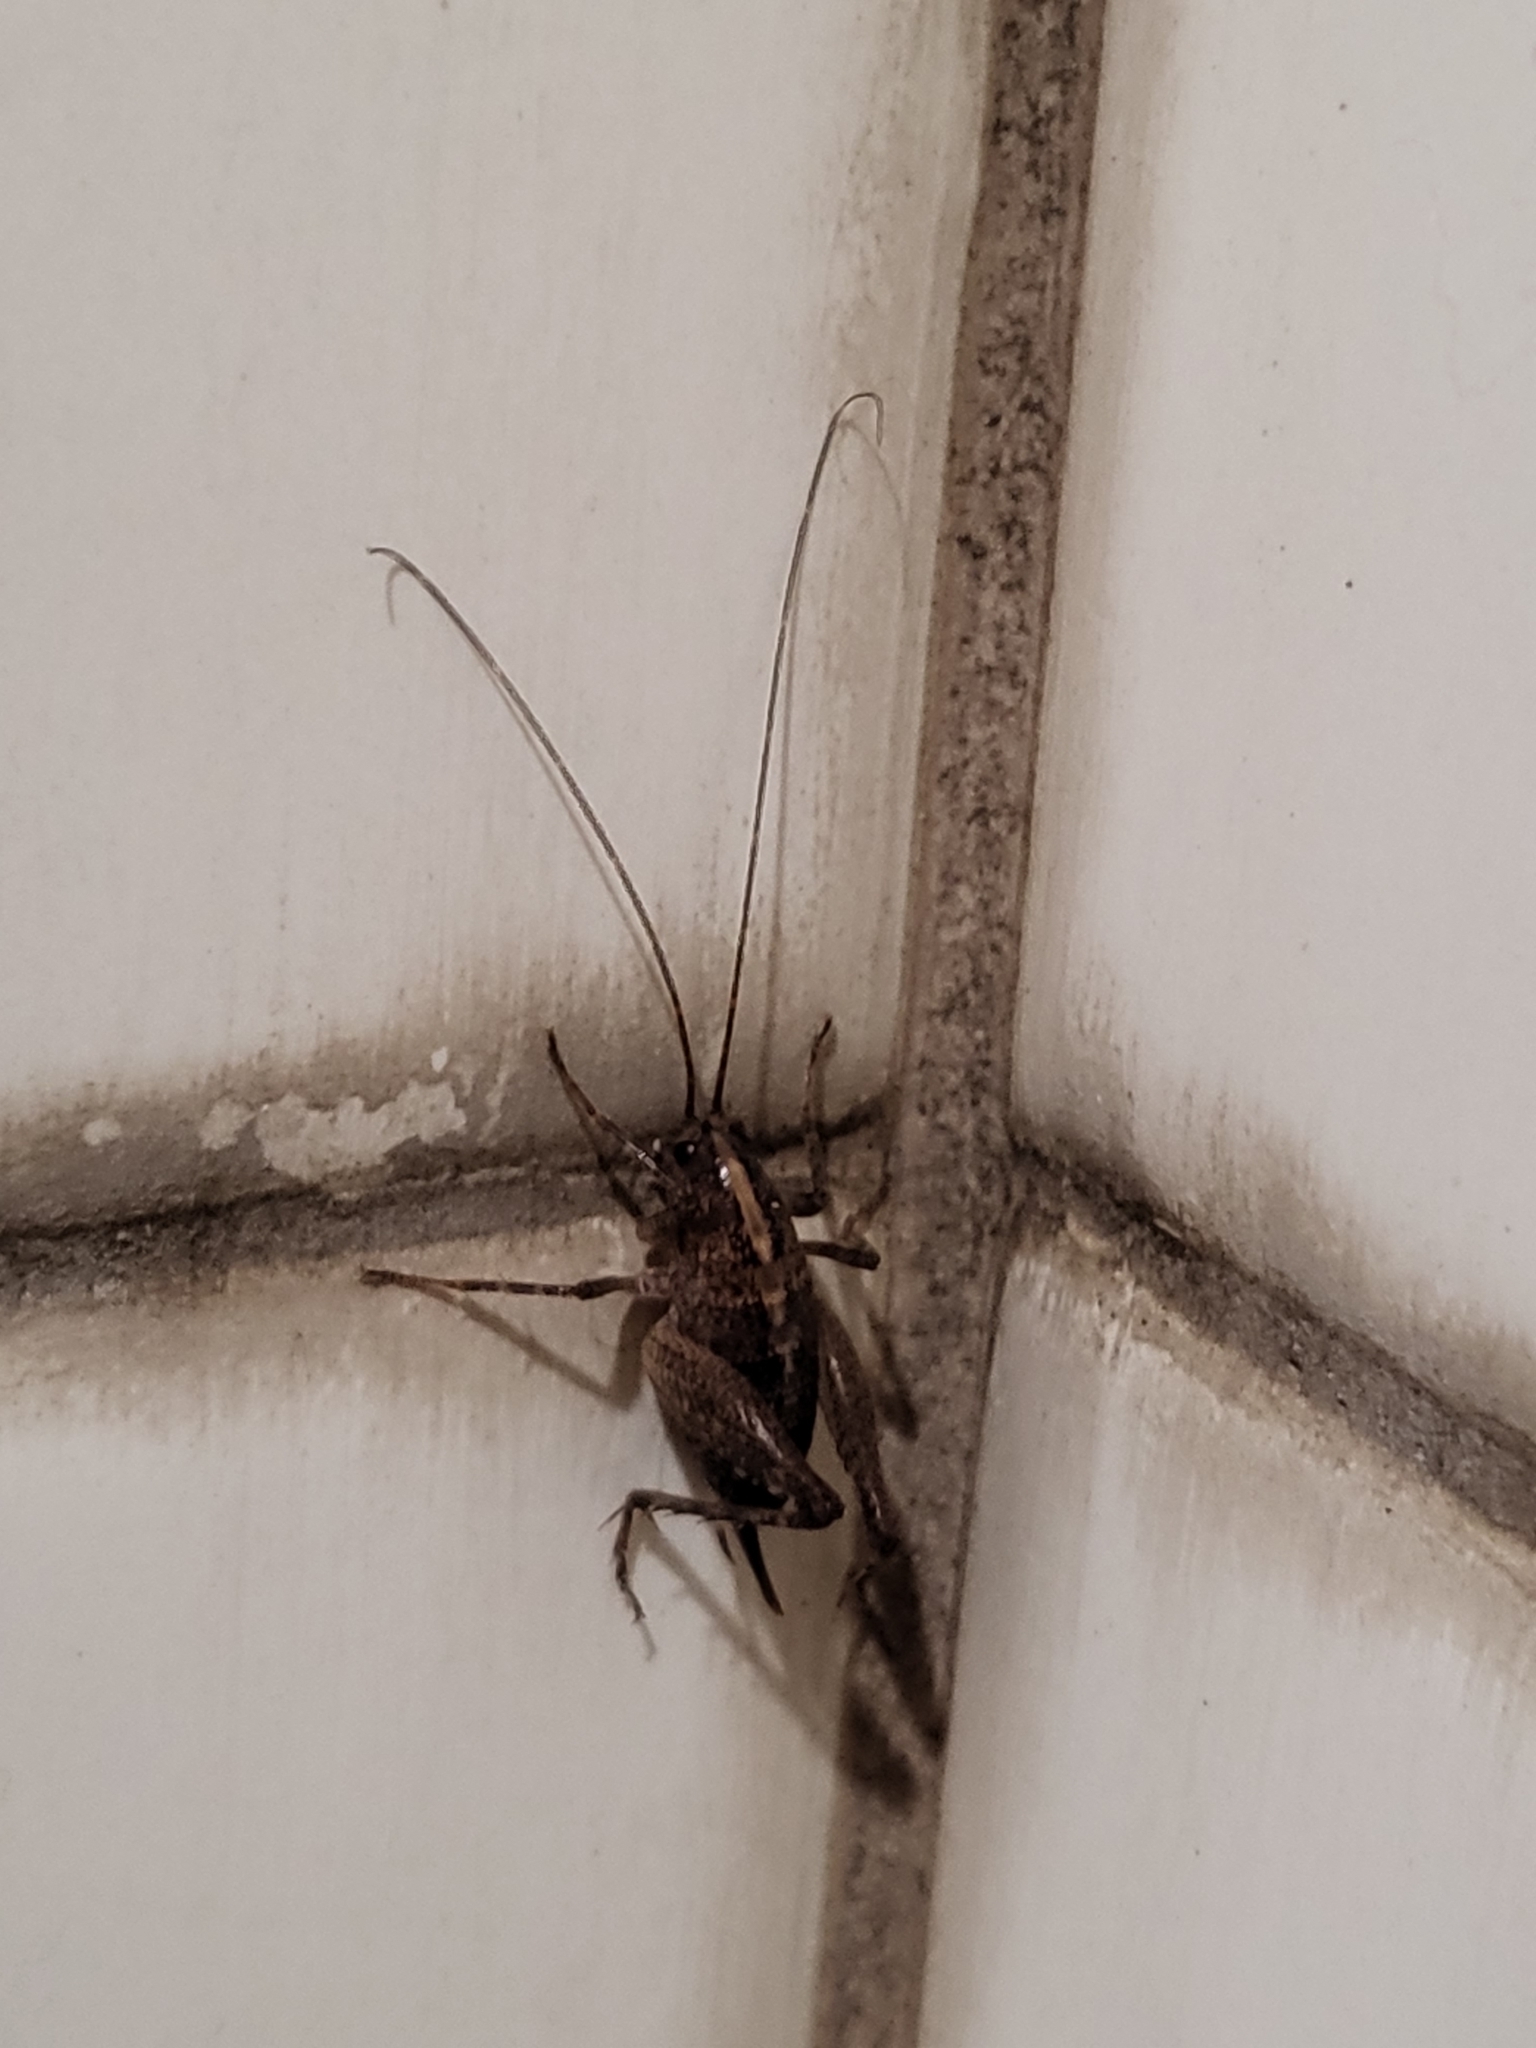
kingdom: Animalia
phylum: Arthropoda
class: Insecta
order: Orthoptera
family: Rhaphidophoridae
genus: Pristoceuthophilus
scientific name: Pristoceuthophilus
